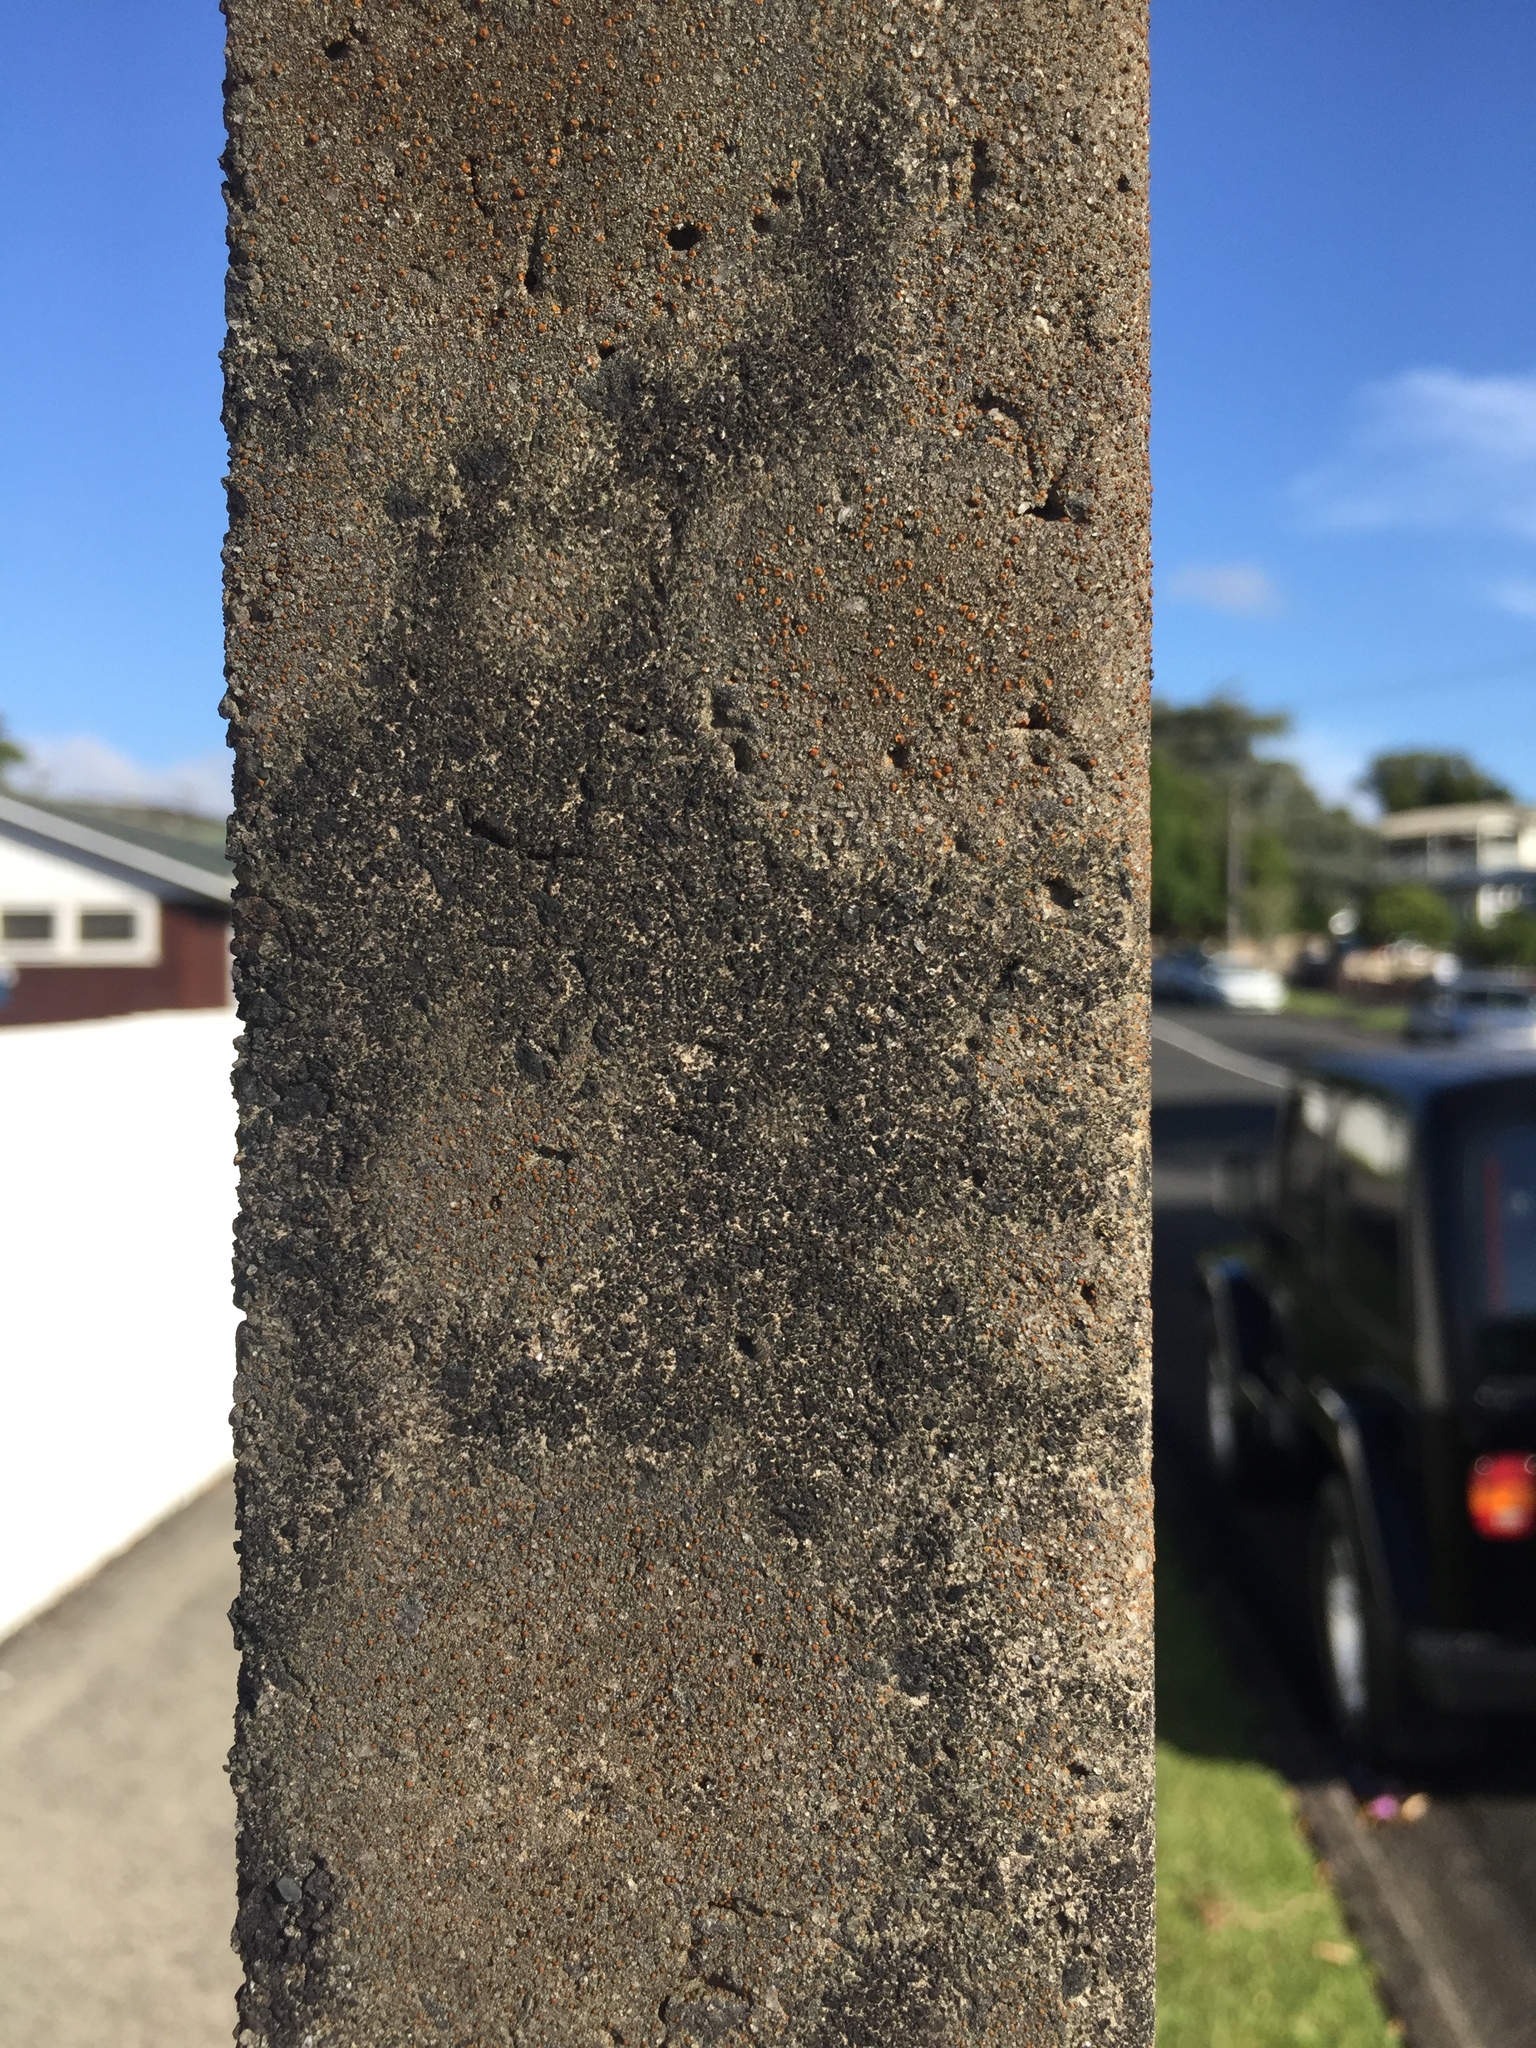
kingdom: Fungi
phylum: Ascomycota
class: Lecanoromycetes
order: Lecanorales
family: Psoraceae
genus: Protoblastenia
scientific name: Protoblastenia rupestris
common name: Chewing gum lichen
